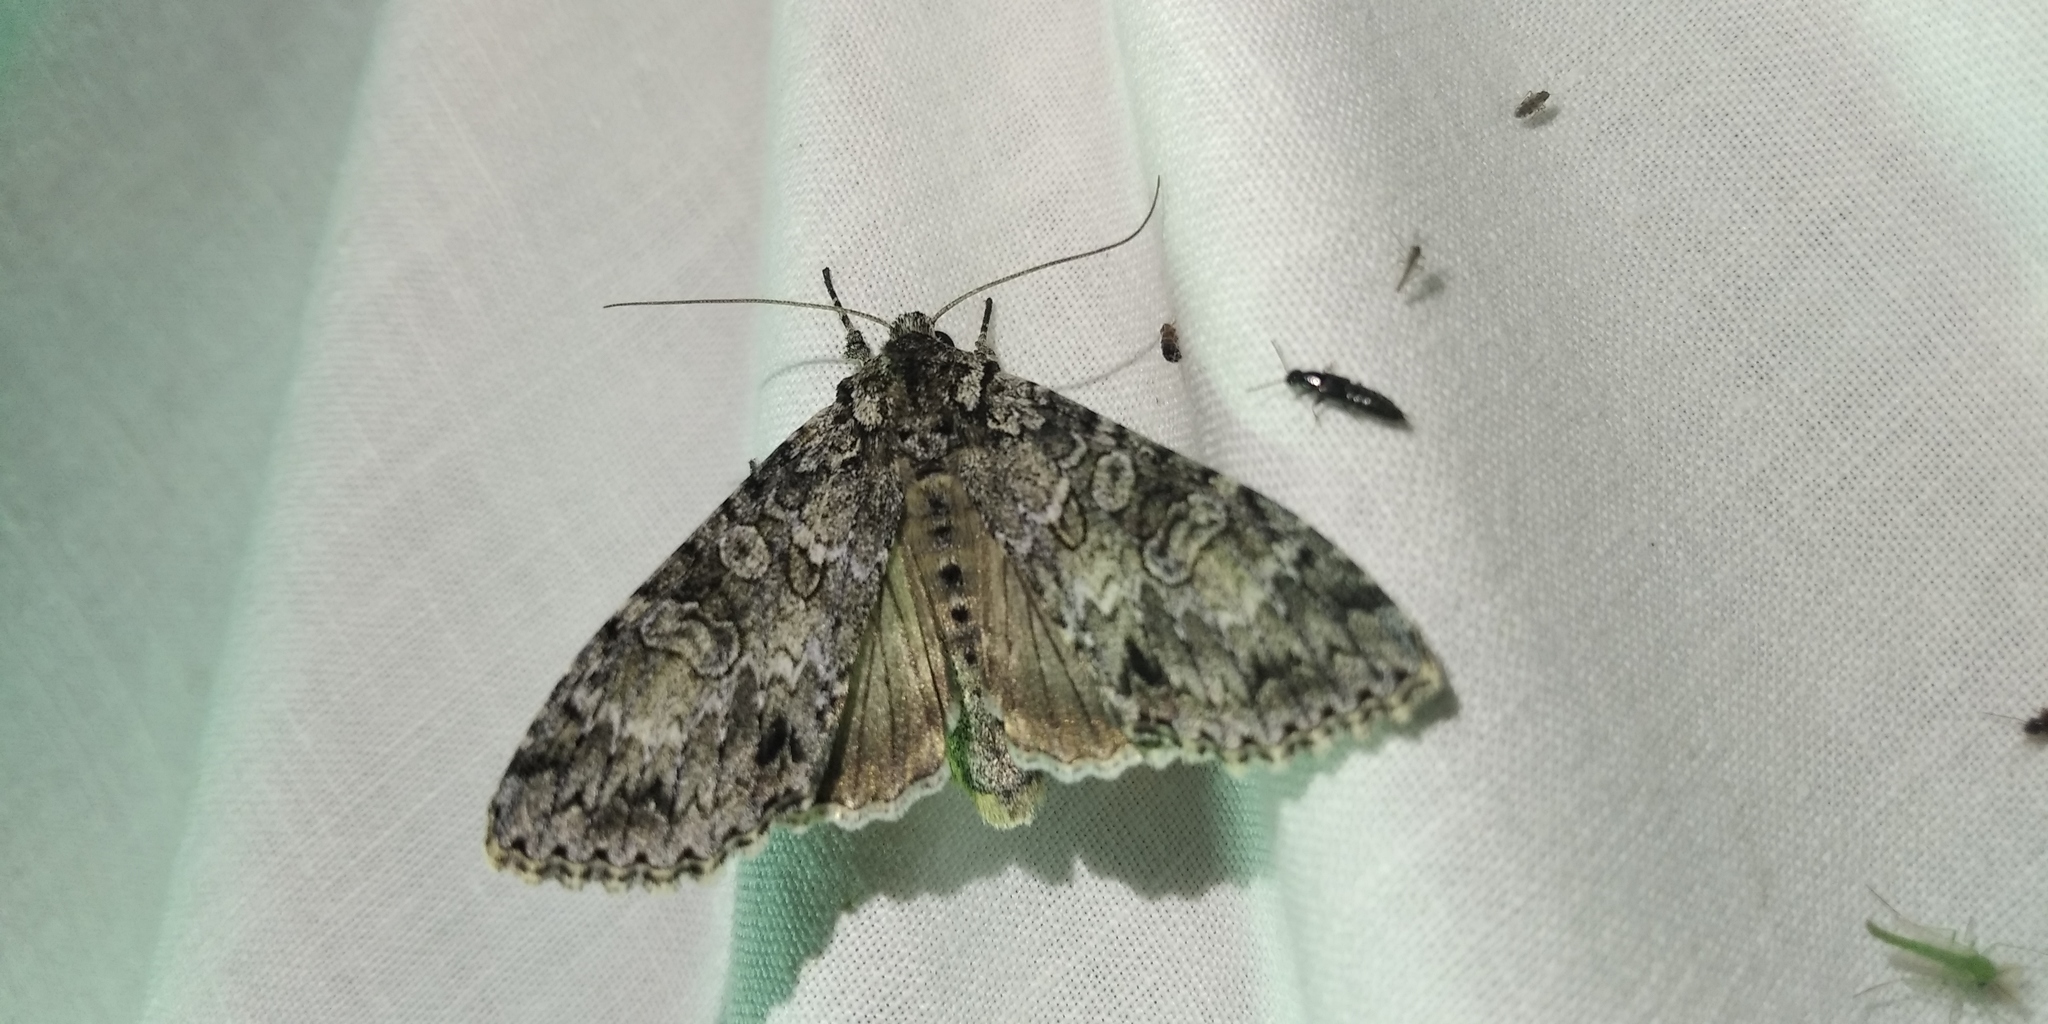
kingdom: Animalia
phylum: Arthropoda
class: Insecta
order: Lepidoptera
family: Noctuidae
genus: Polia
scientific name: Polia nebulosa
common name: Grey arches
